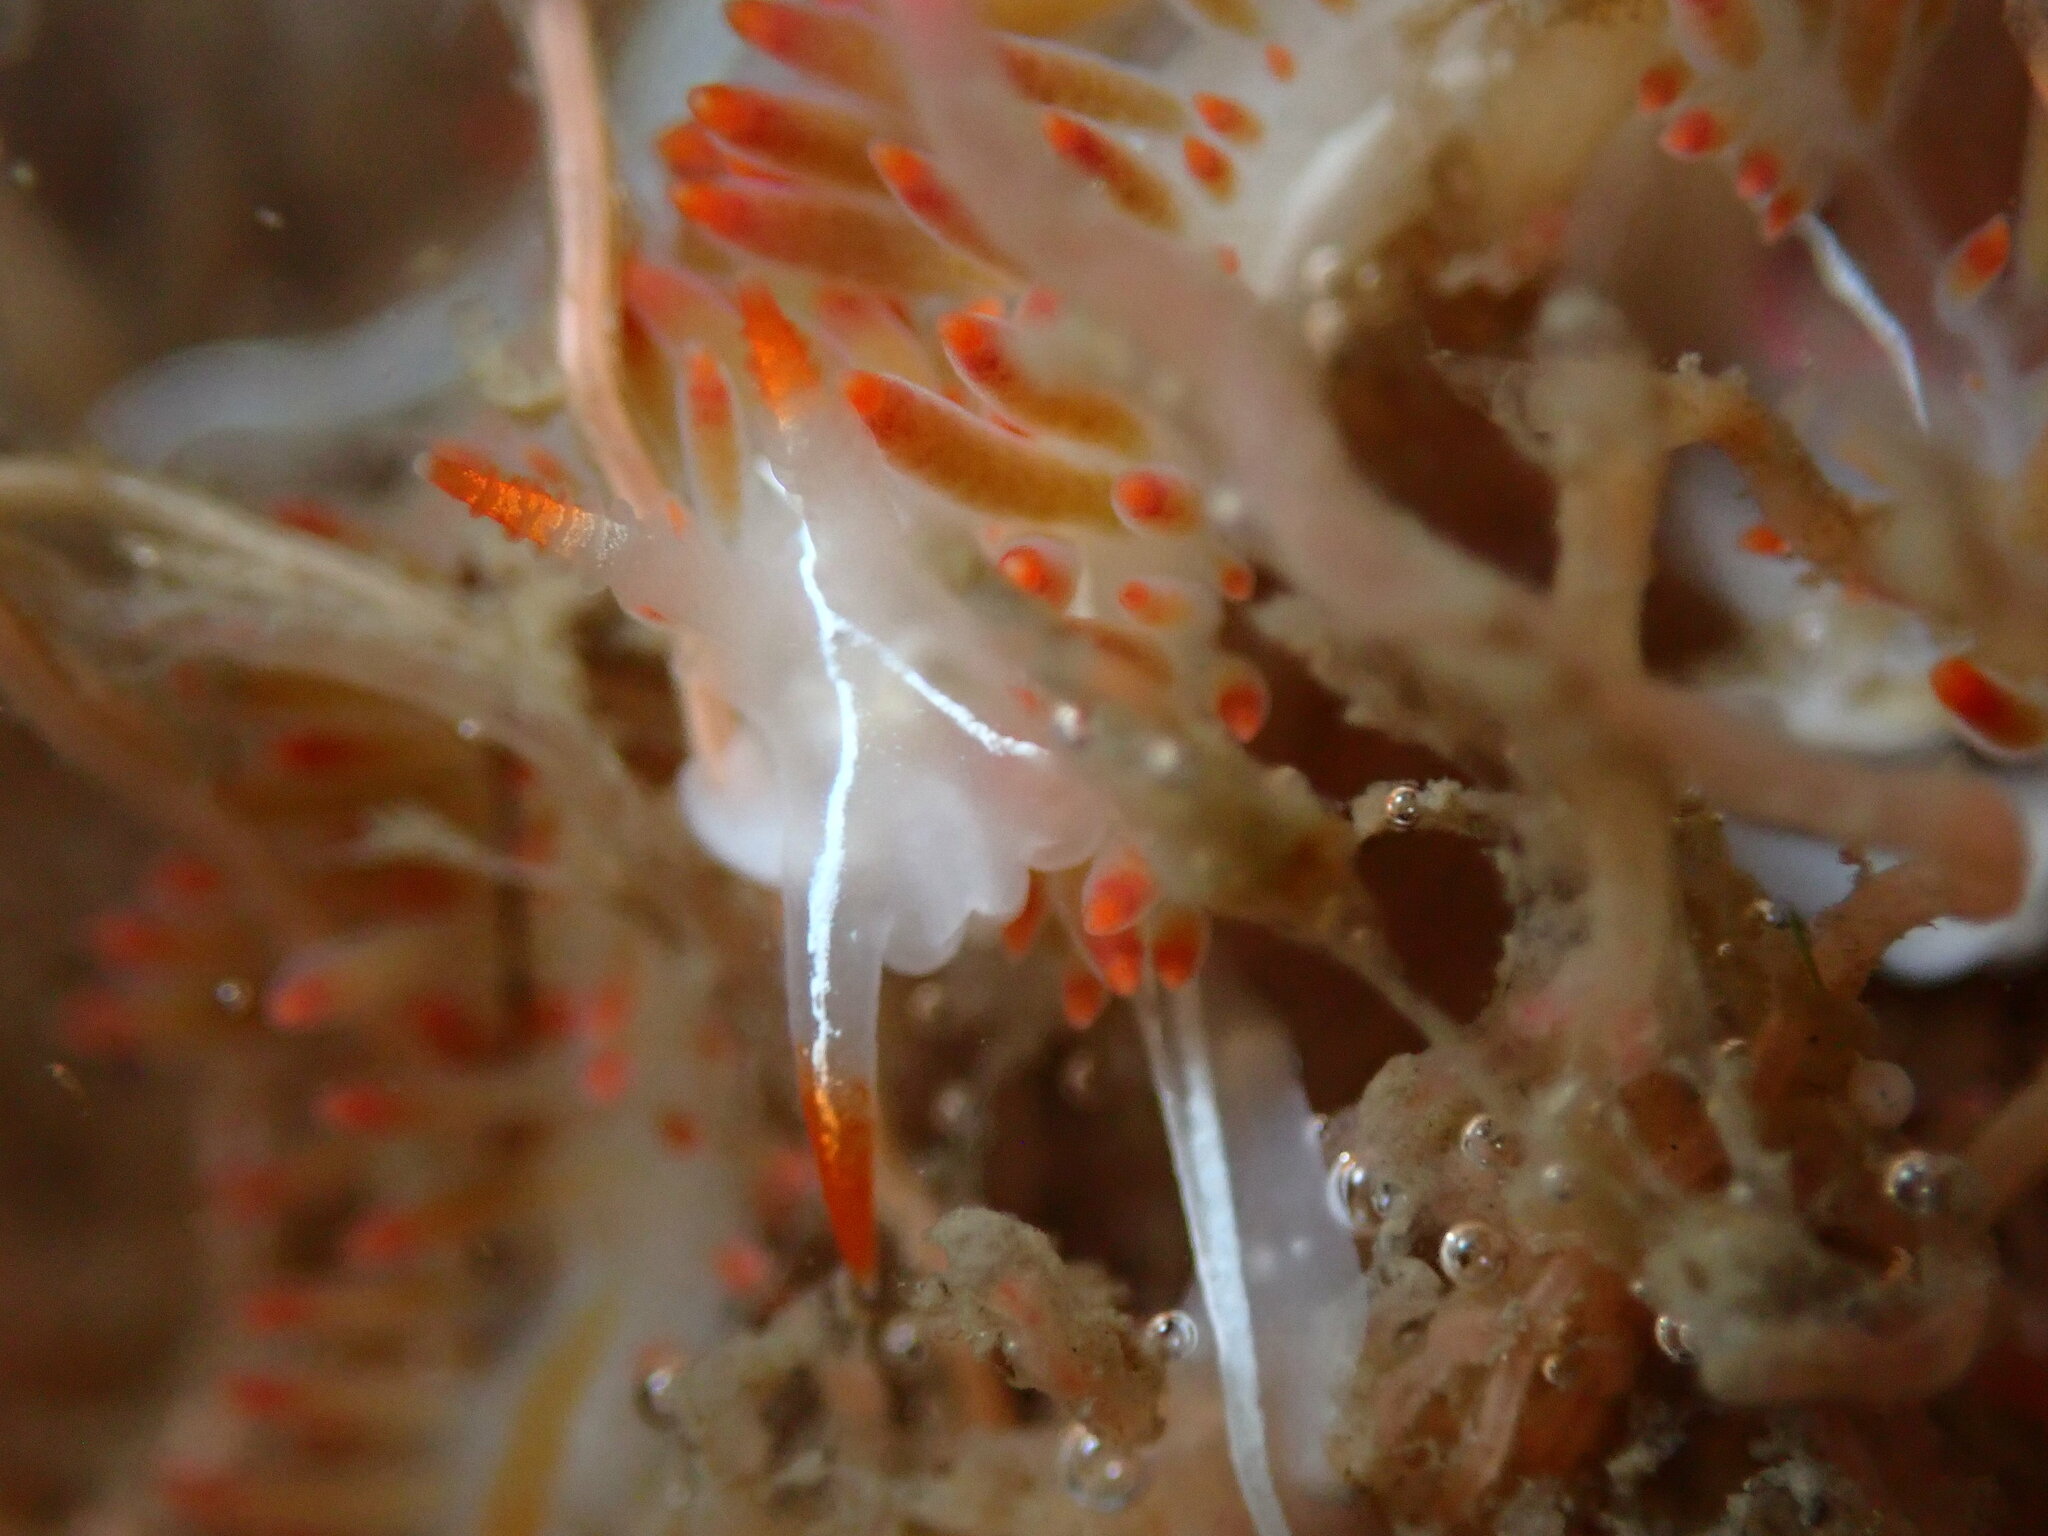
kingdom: Animalia
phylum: Mollusca
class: Gastropoda
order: Nudibranchia
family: Coryphellidae
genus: Coryphella
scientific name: Coryphella trilineata
